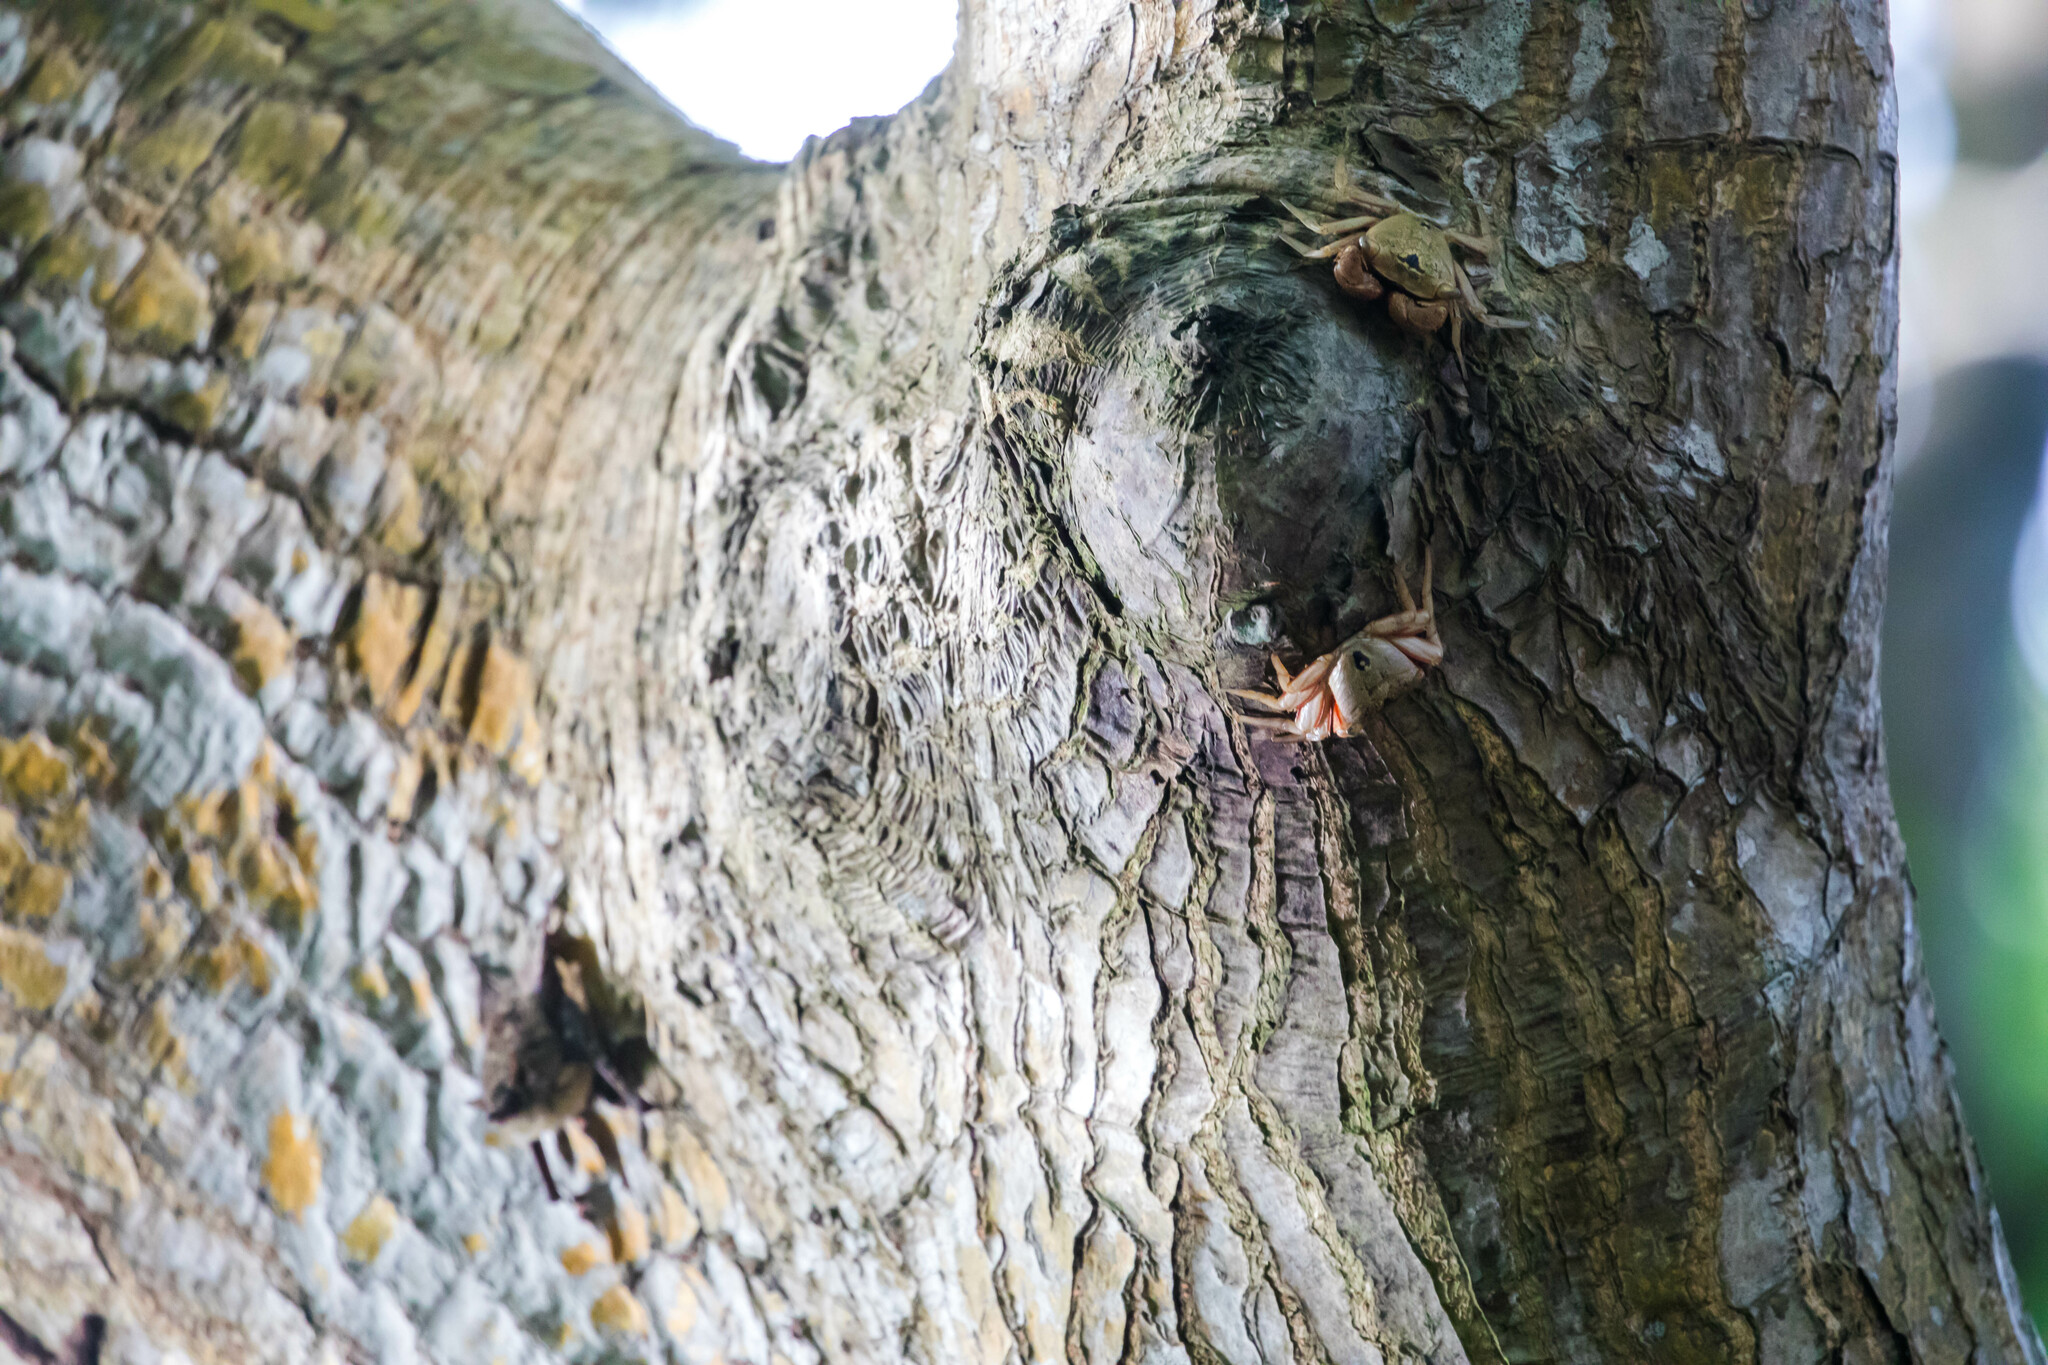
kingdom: Animalia
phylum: Arthropoda
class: Malacostraca
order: Decapoda
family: Sesarmidae
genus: Aratus
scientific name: Aratus pisonii
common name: Mangrove crab
